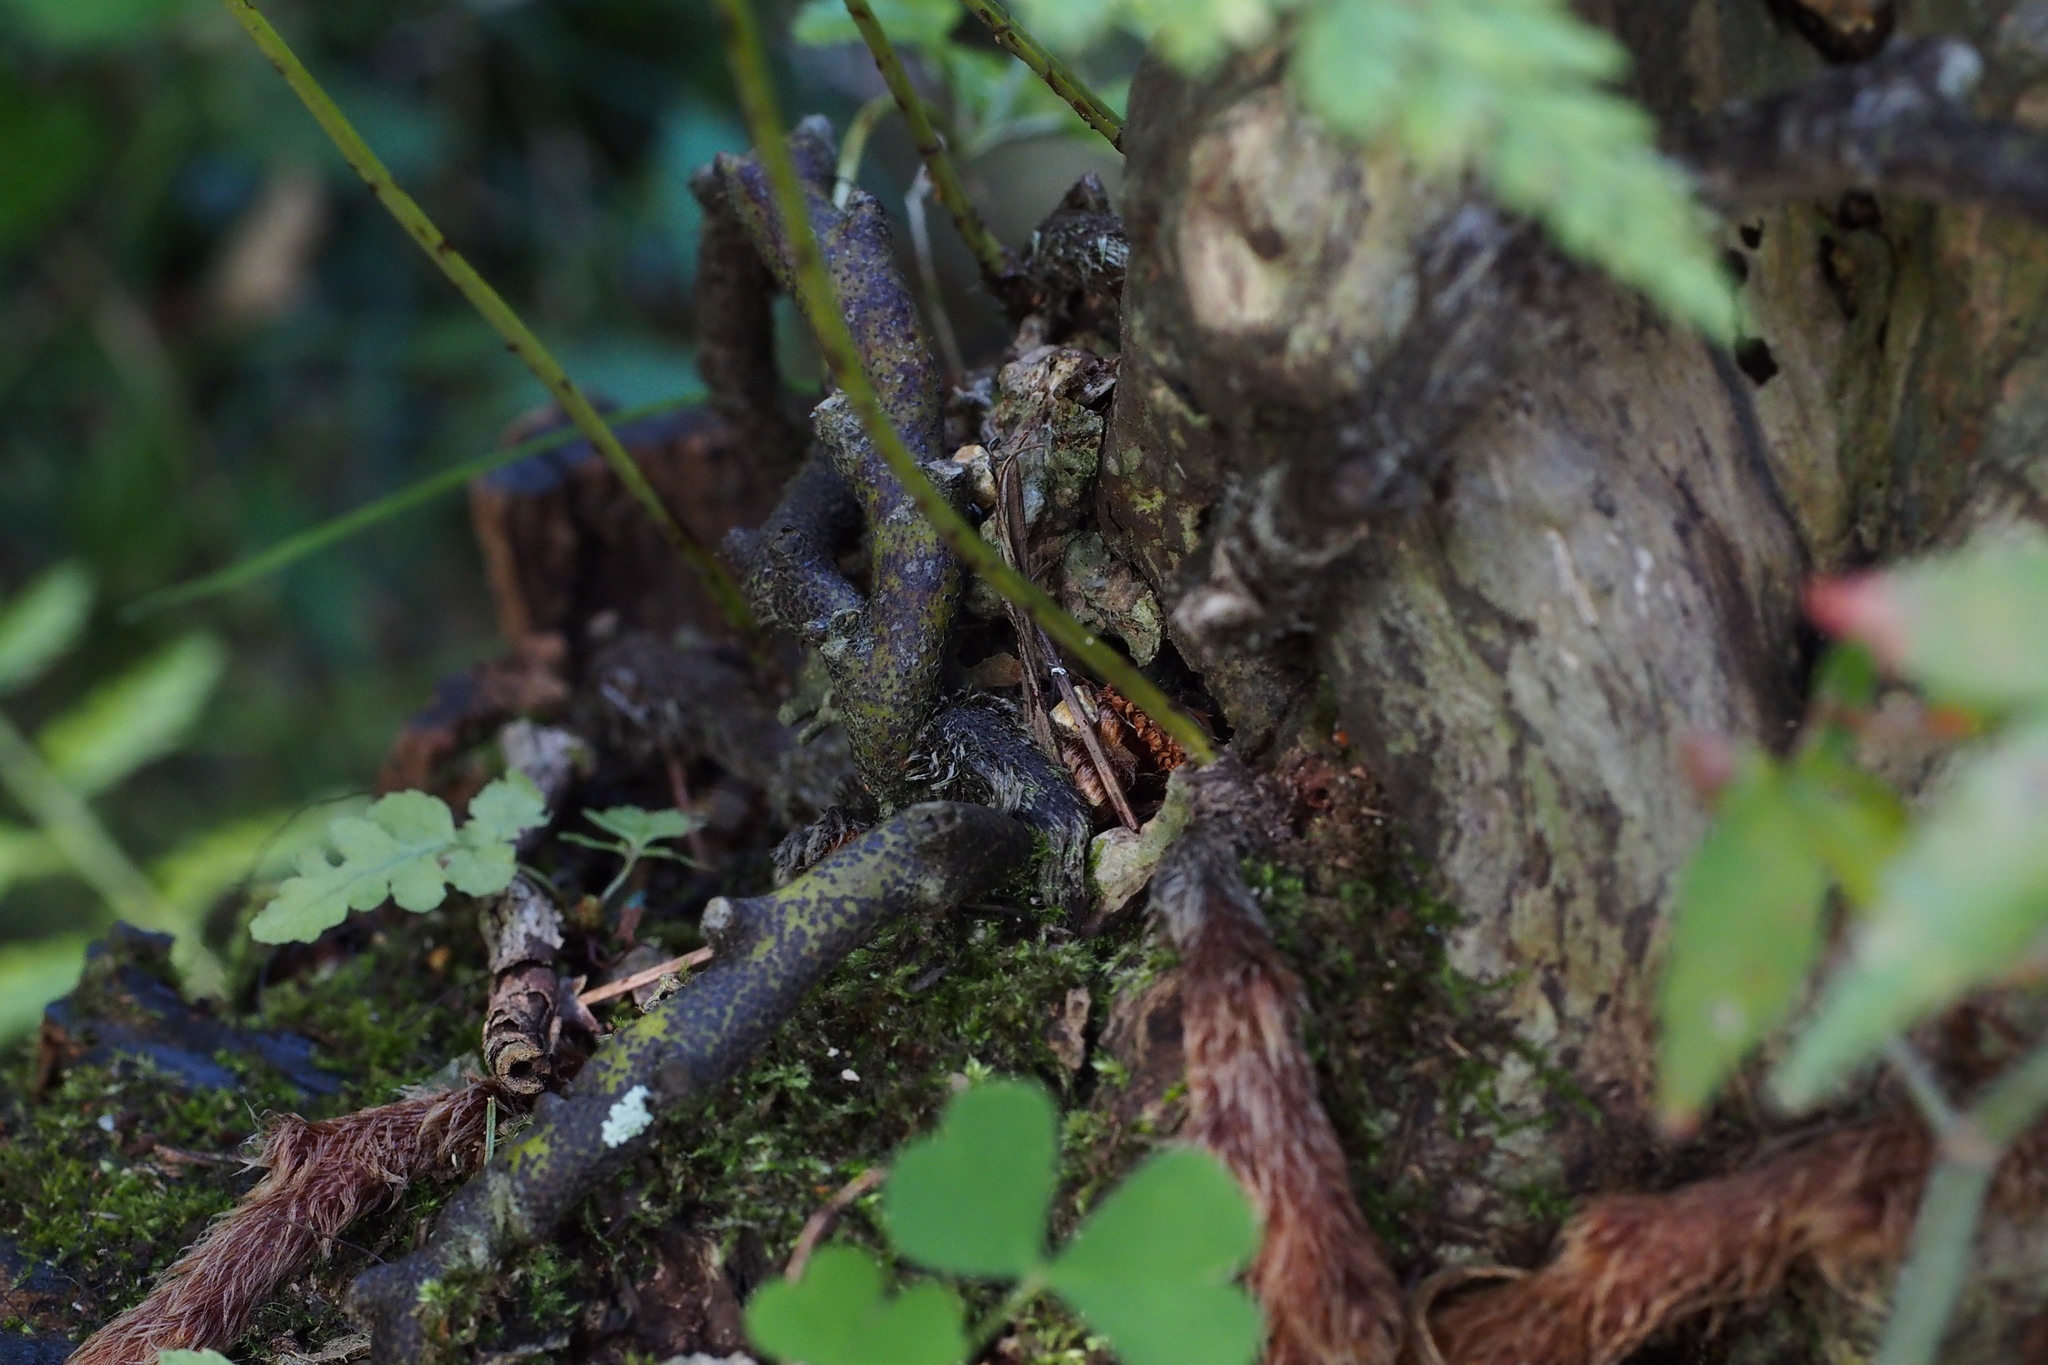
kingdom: Plantae
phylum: Tracheophyta
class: Polypodiopsida
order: Polypodiales
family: Davalliaceae
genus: Davallia
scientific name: Davallia mariesii
